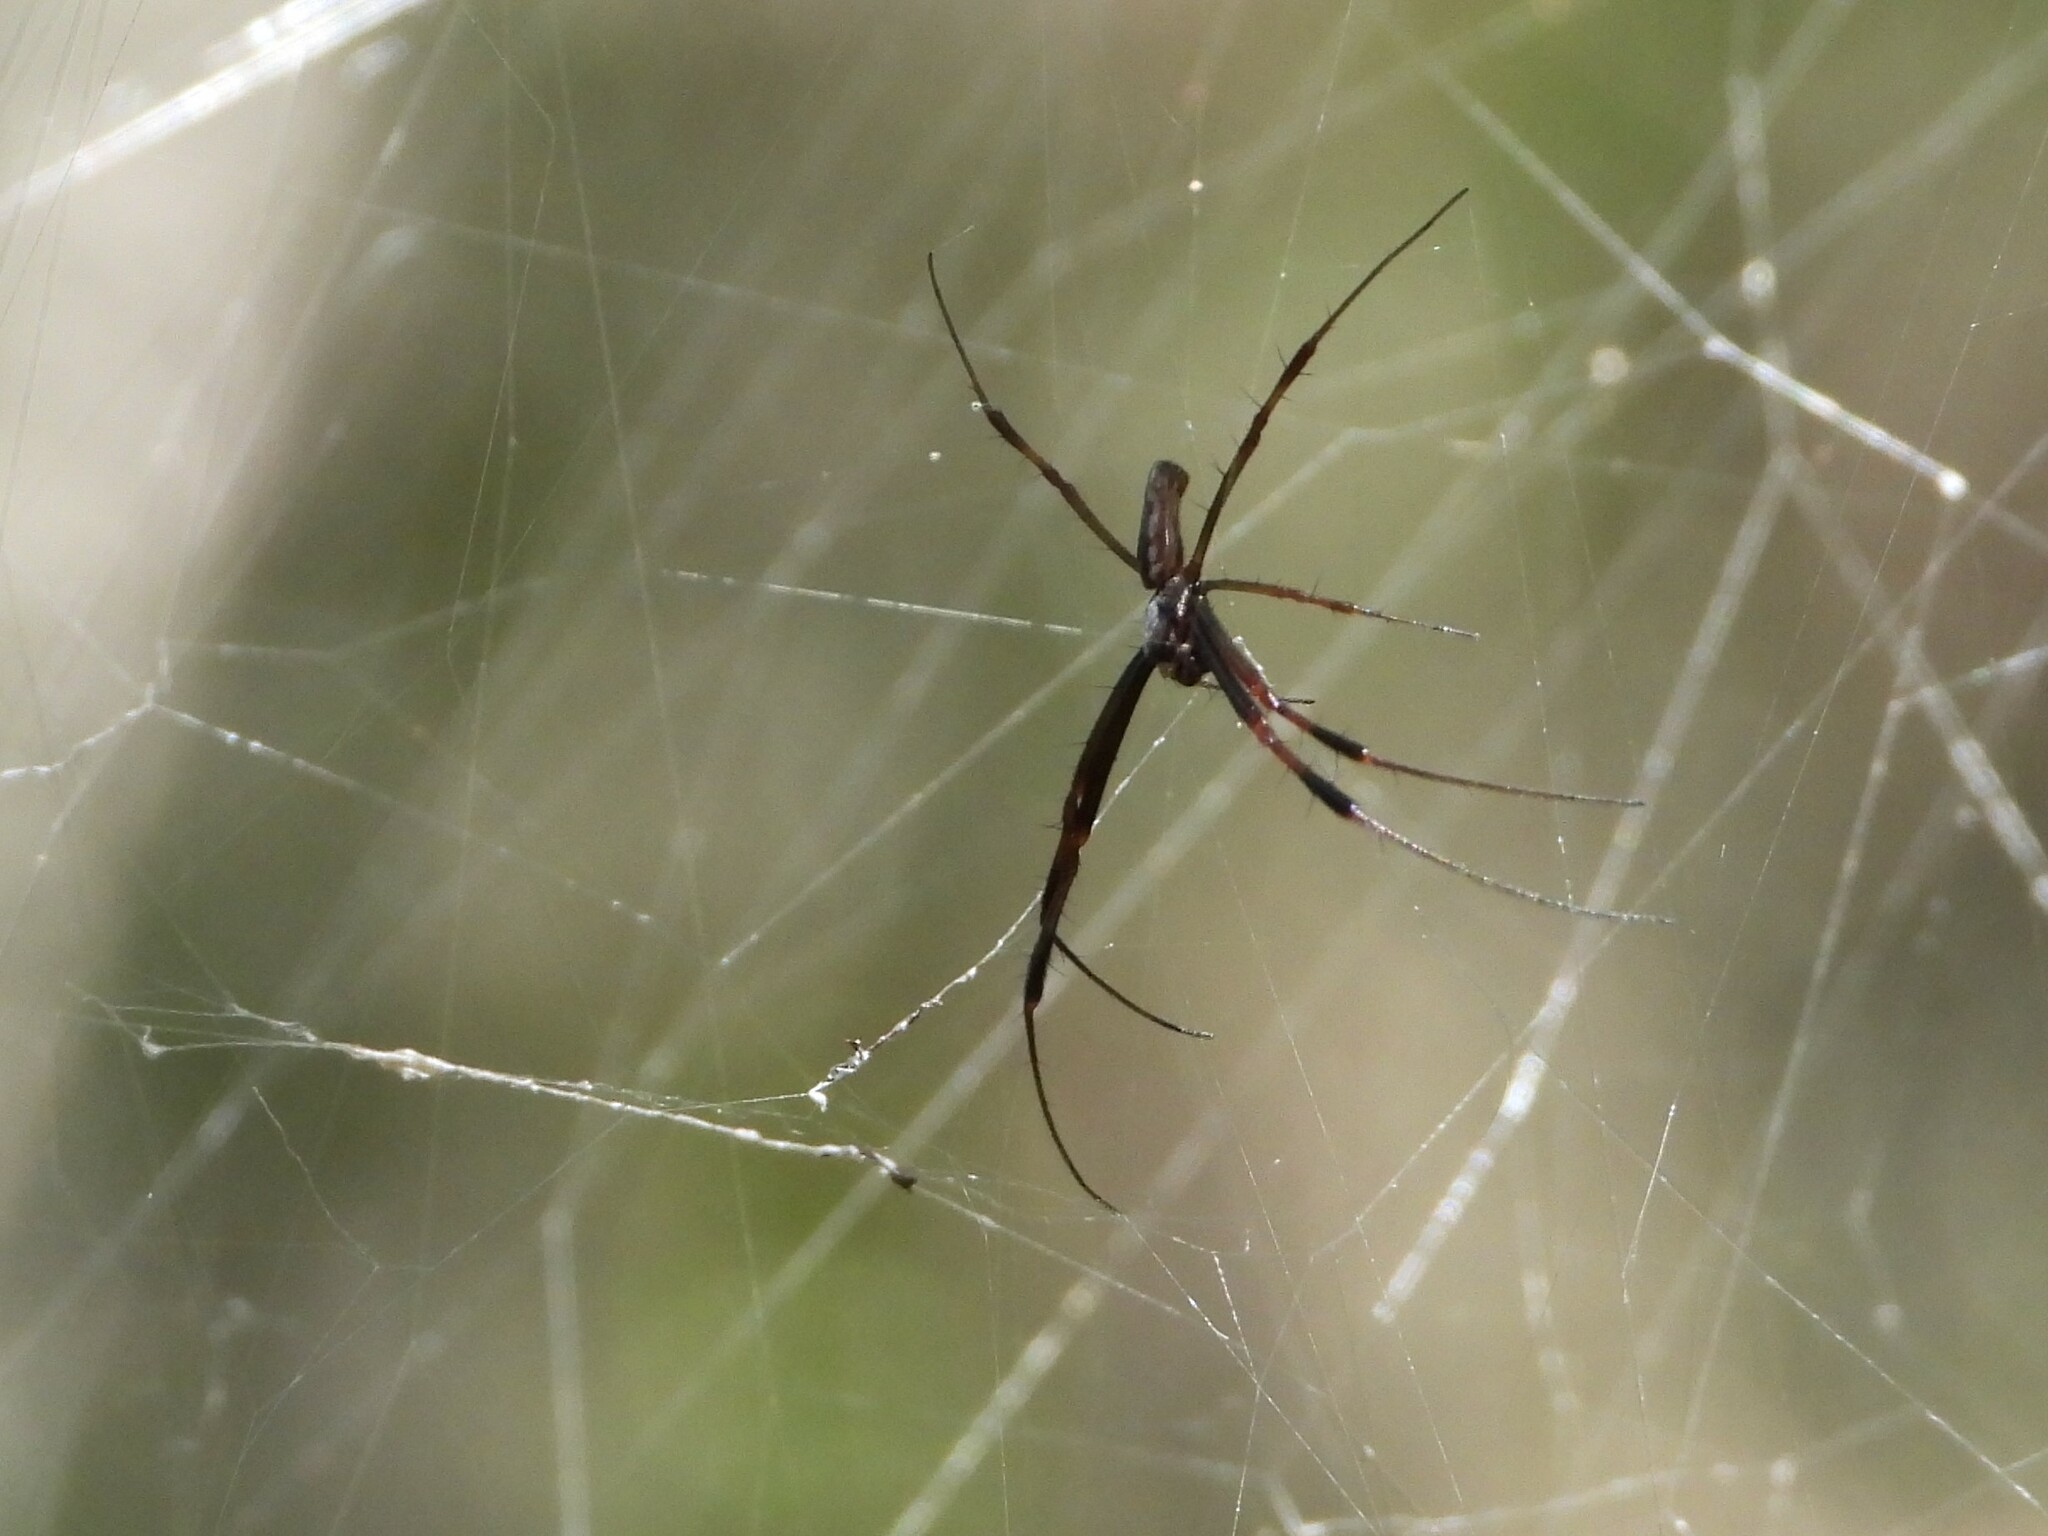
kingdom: Animalia
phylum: Arthropoda
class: Arachnida
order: Araneae
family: Araneidae
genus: Trichonephila
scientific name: Trichonephila clavipes
